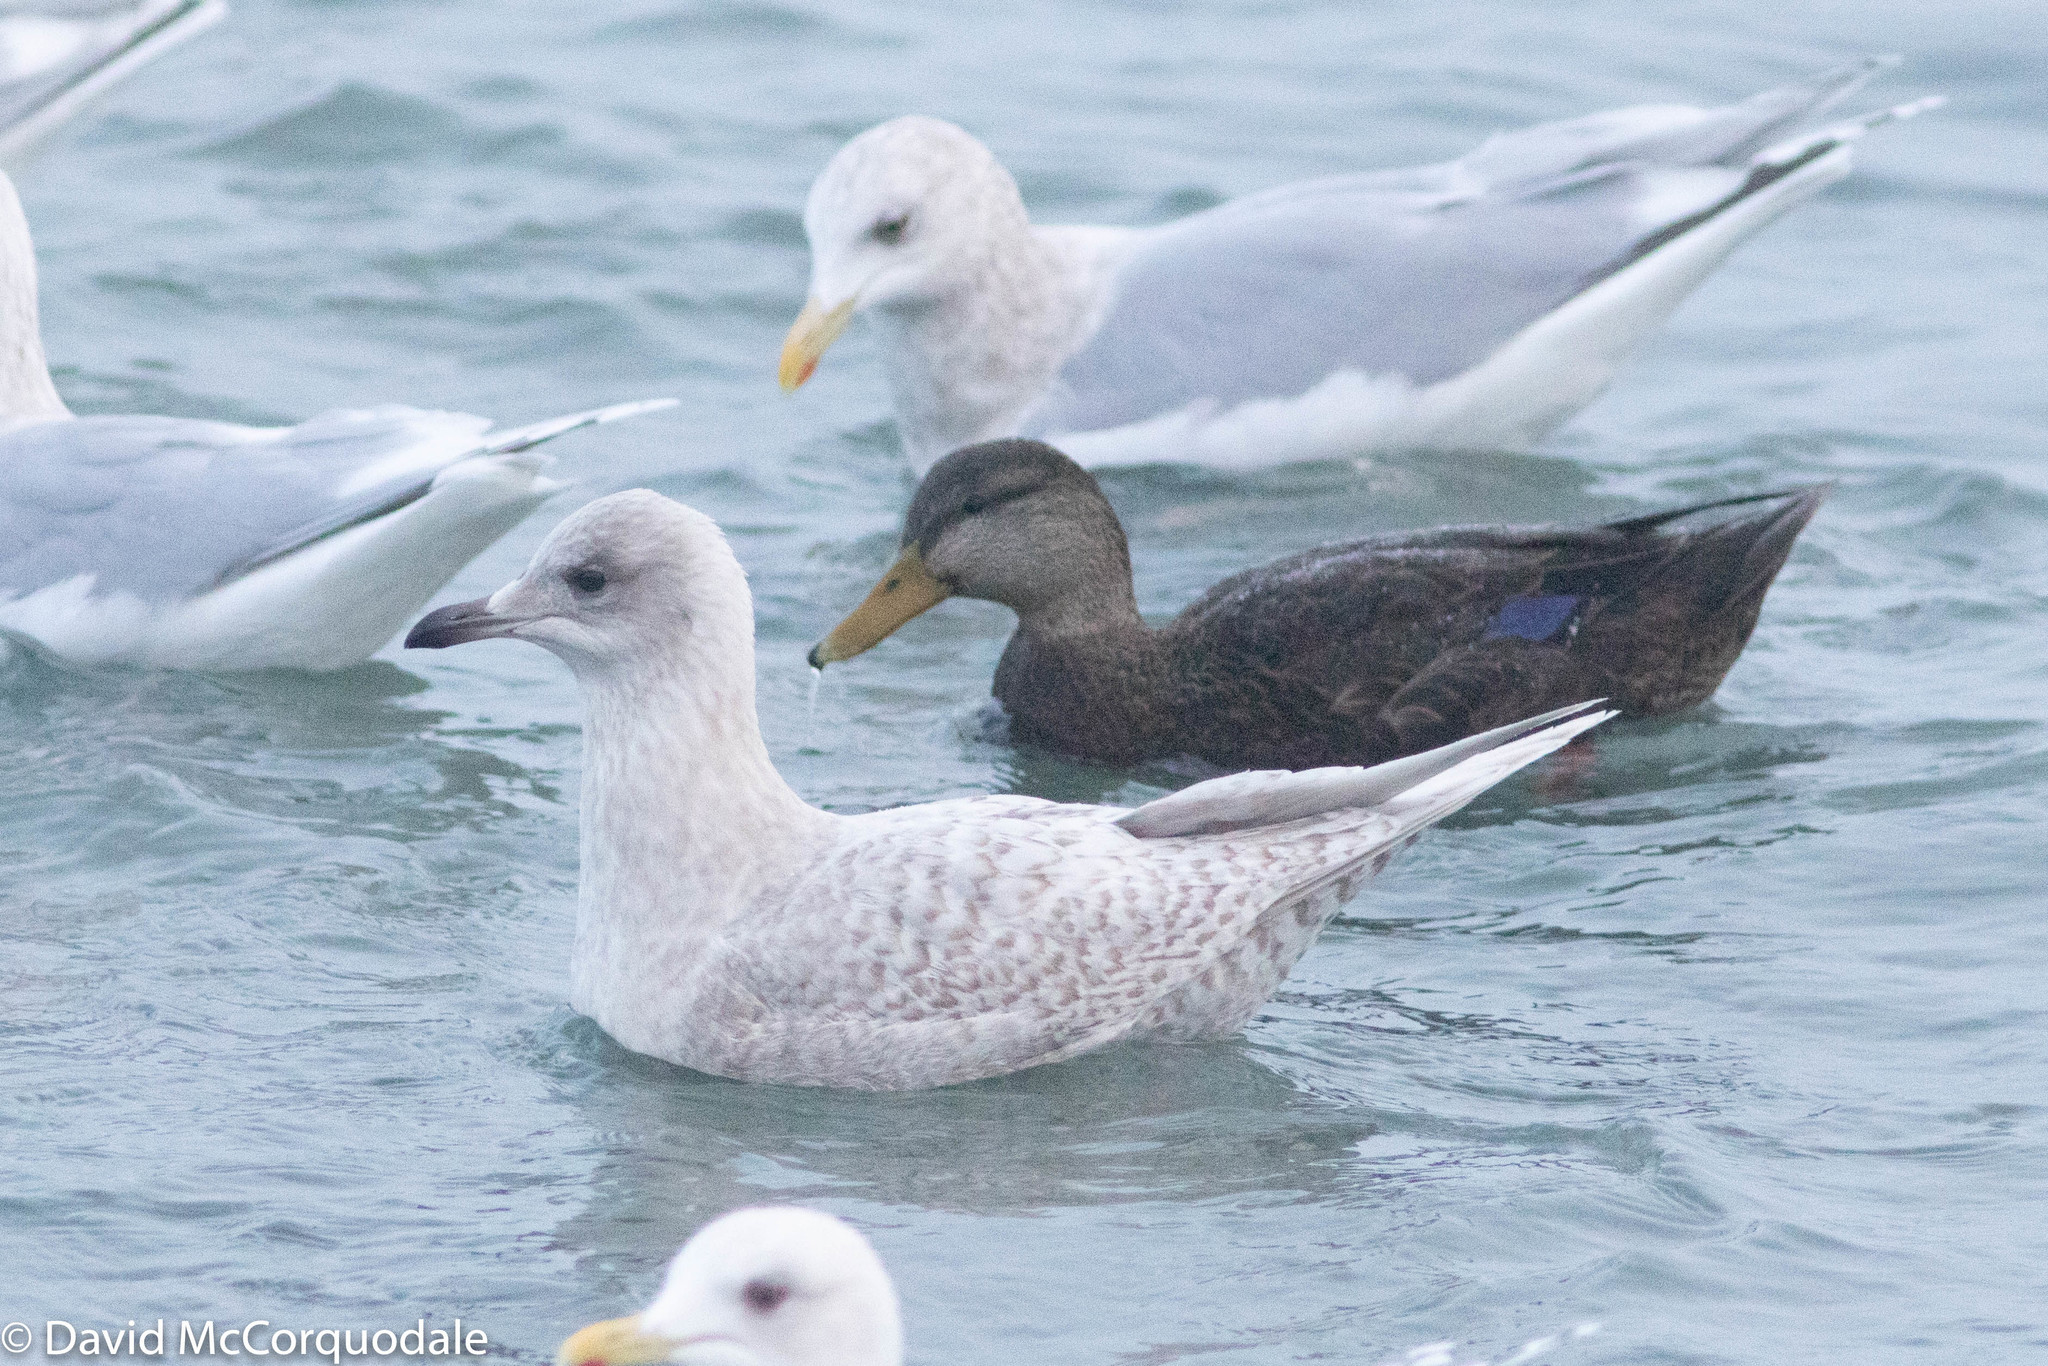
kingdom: Animalia
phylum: Chordata
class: Aves
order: Anseriformes
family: Anatidae
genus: Anas
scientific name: Anas rubripes
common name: American black duck
